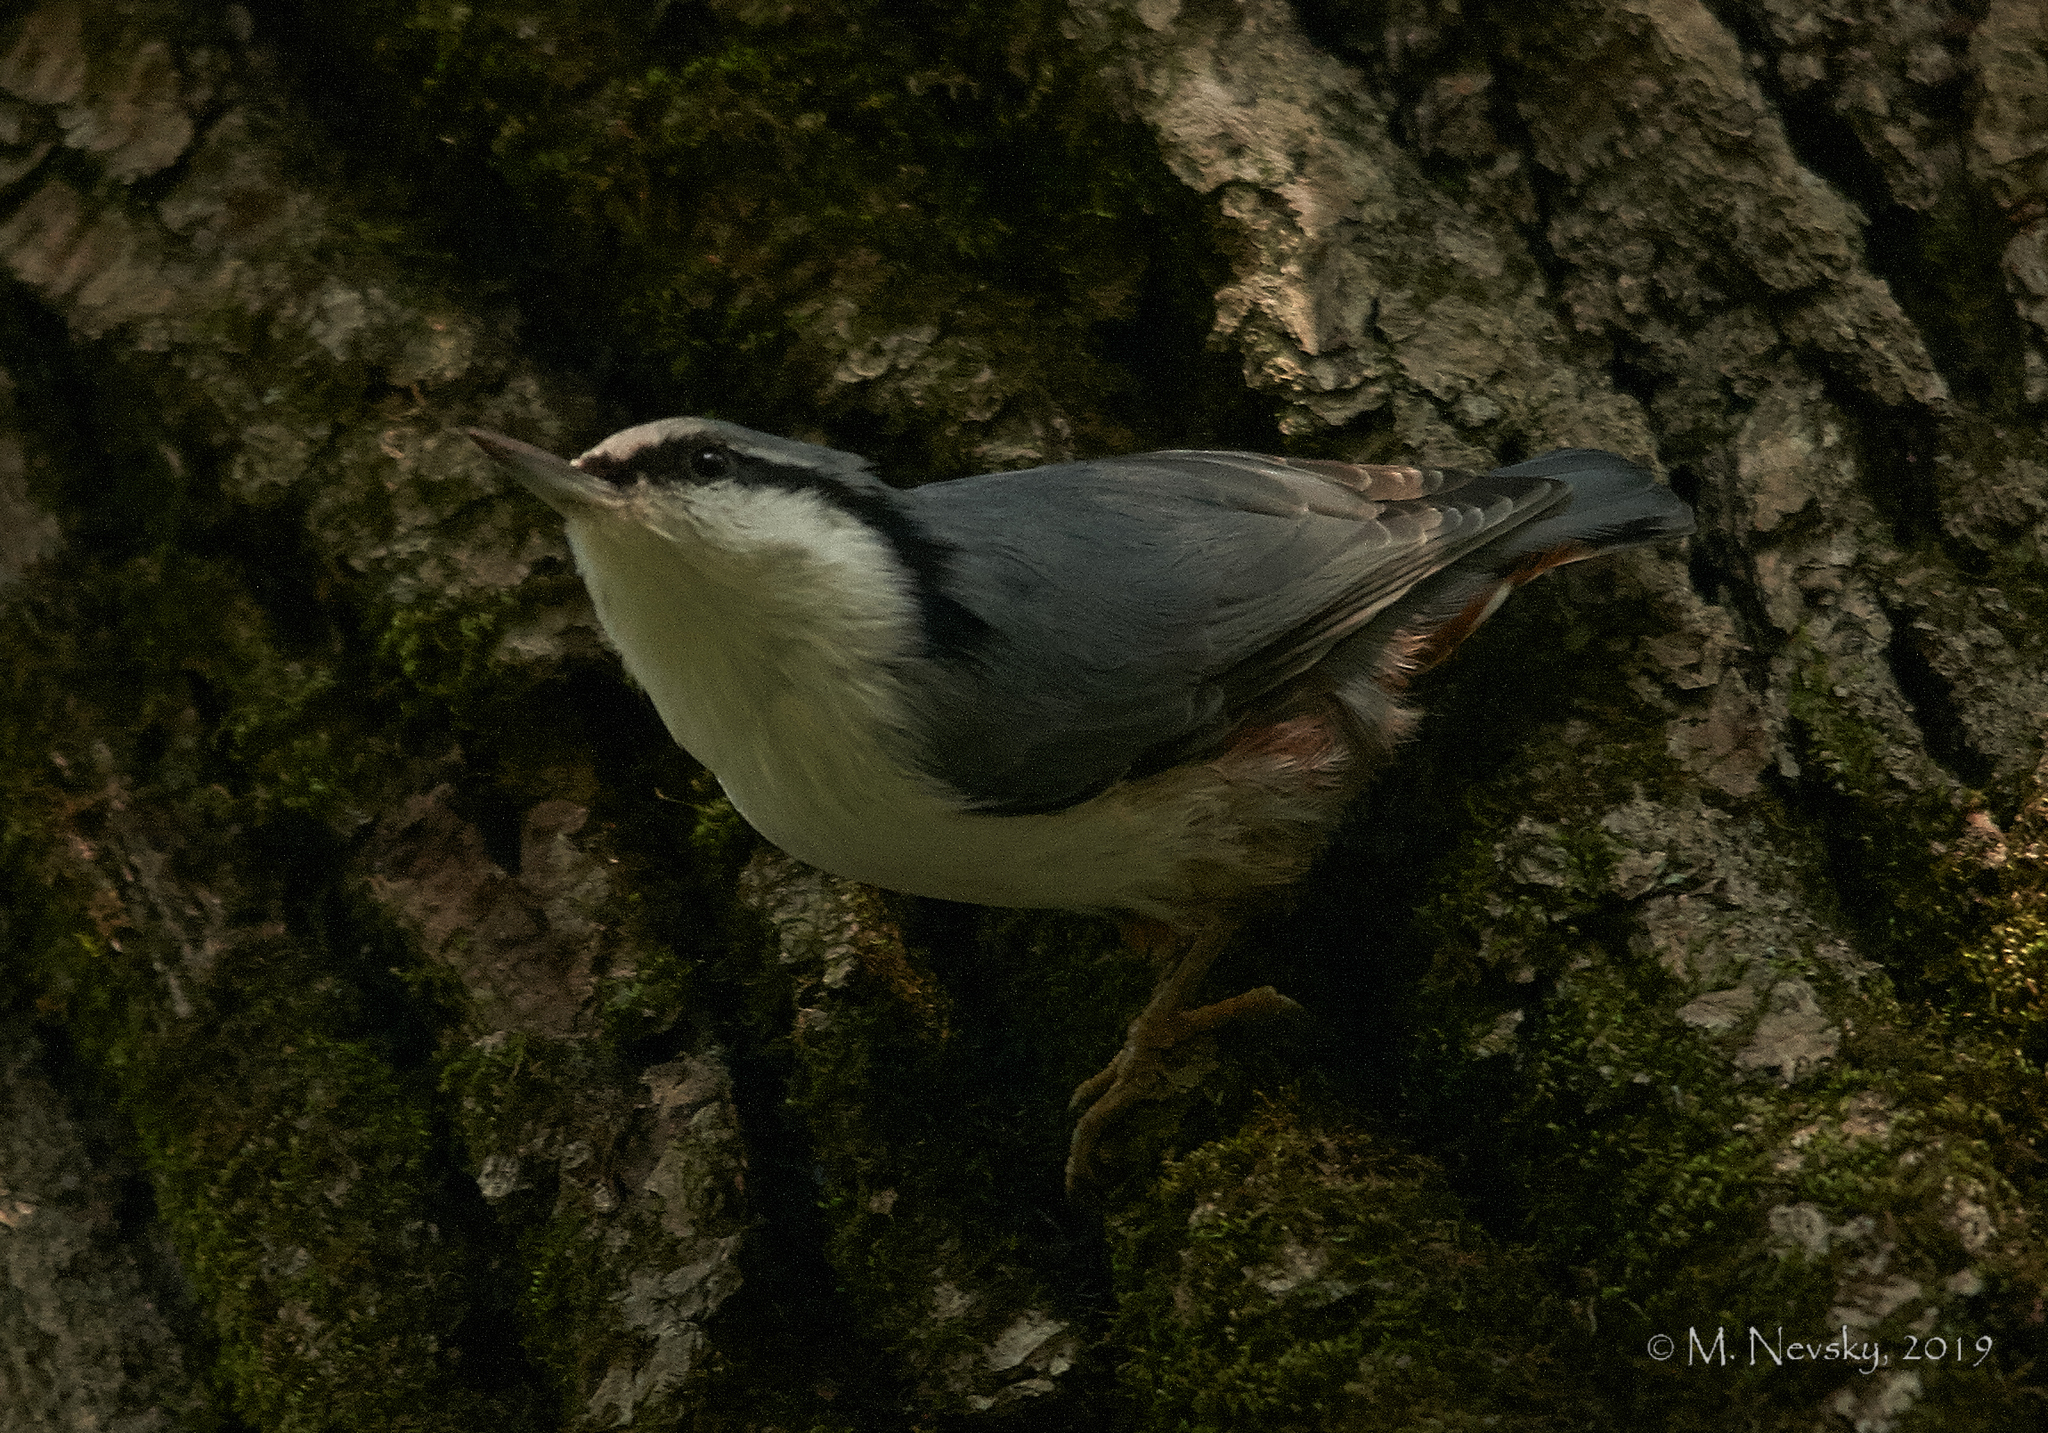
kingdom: Animalia
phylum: Chordata
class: Aves
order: Passeriformes
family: Sittidae
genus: Sitta
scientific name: Sitta europaea
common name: Eurasian nuthatch
